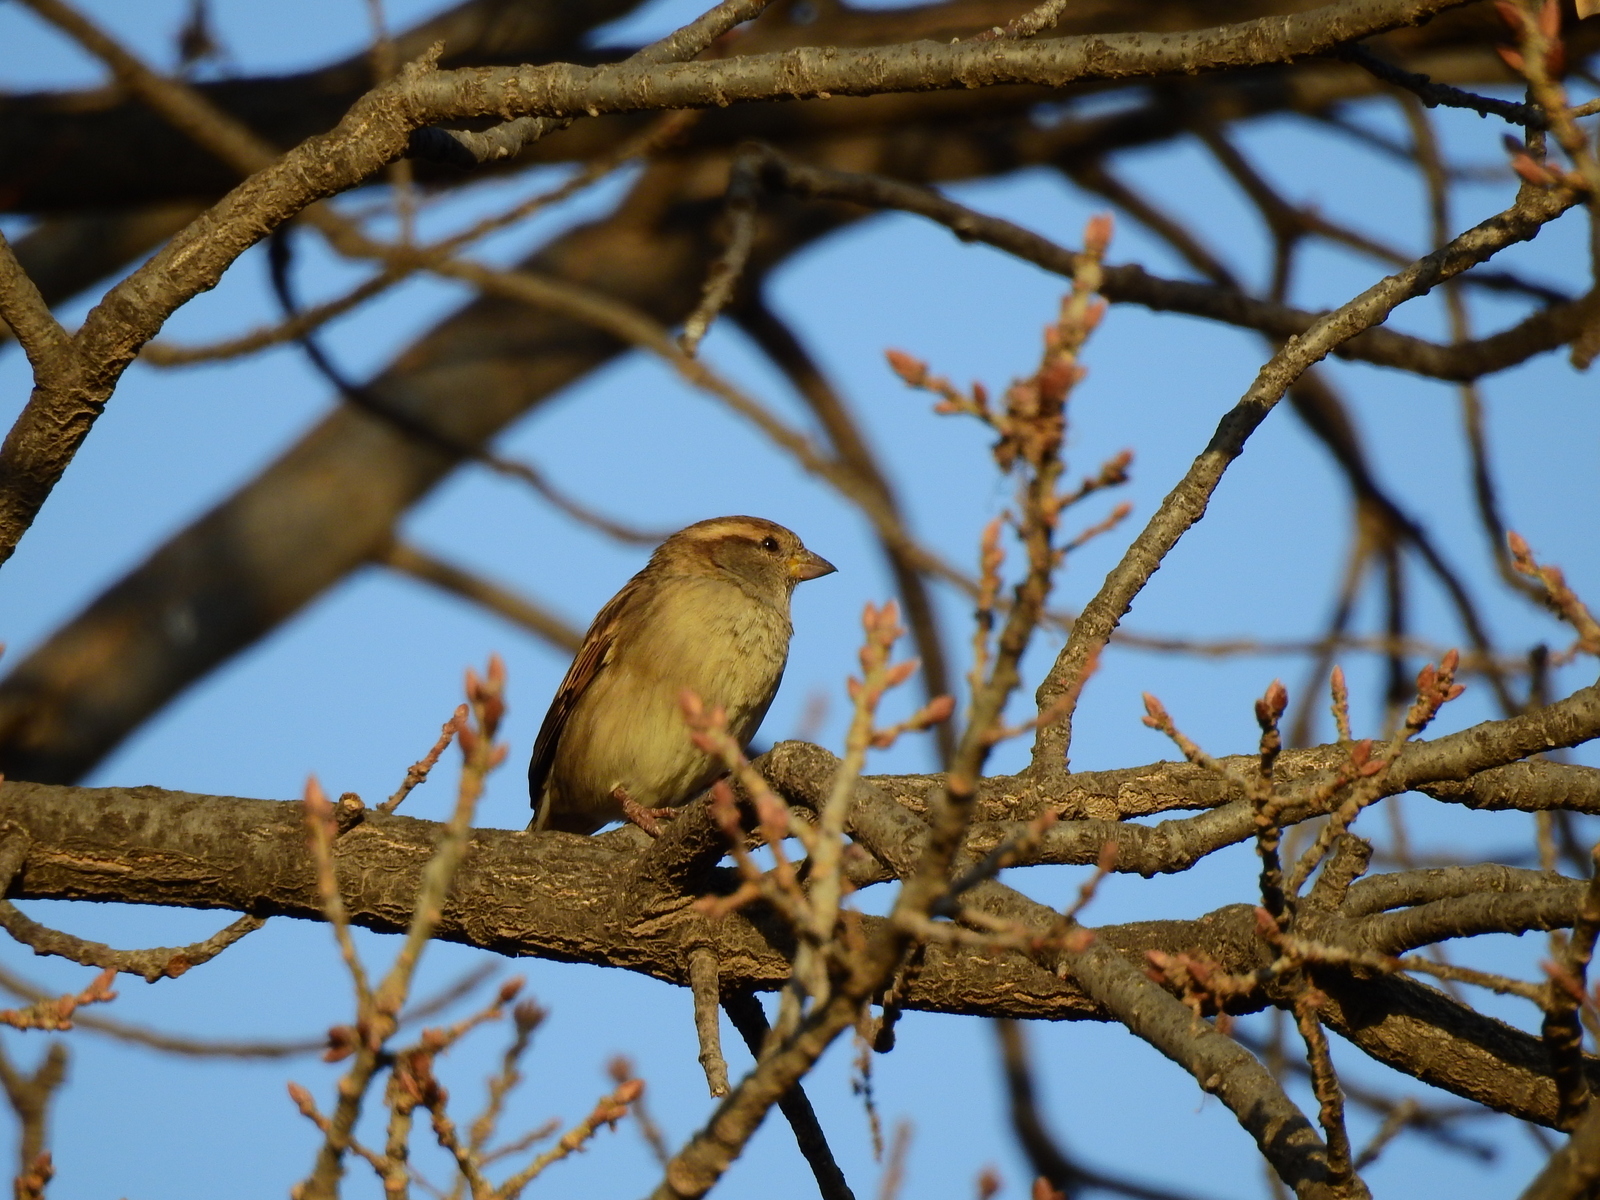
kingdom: Animalia
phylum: Chordata
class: Aves
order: Passeriformes
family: Passeridae
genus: Passer
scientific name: Passer domesticus
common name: House sparrow
